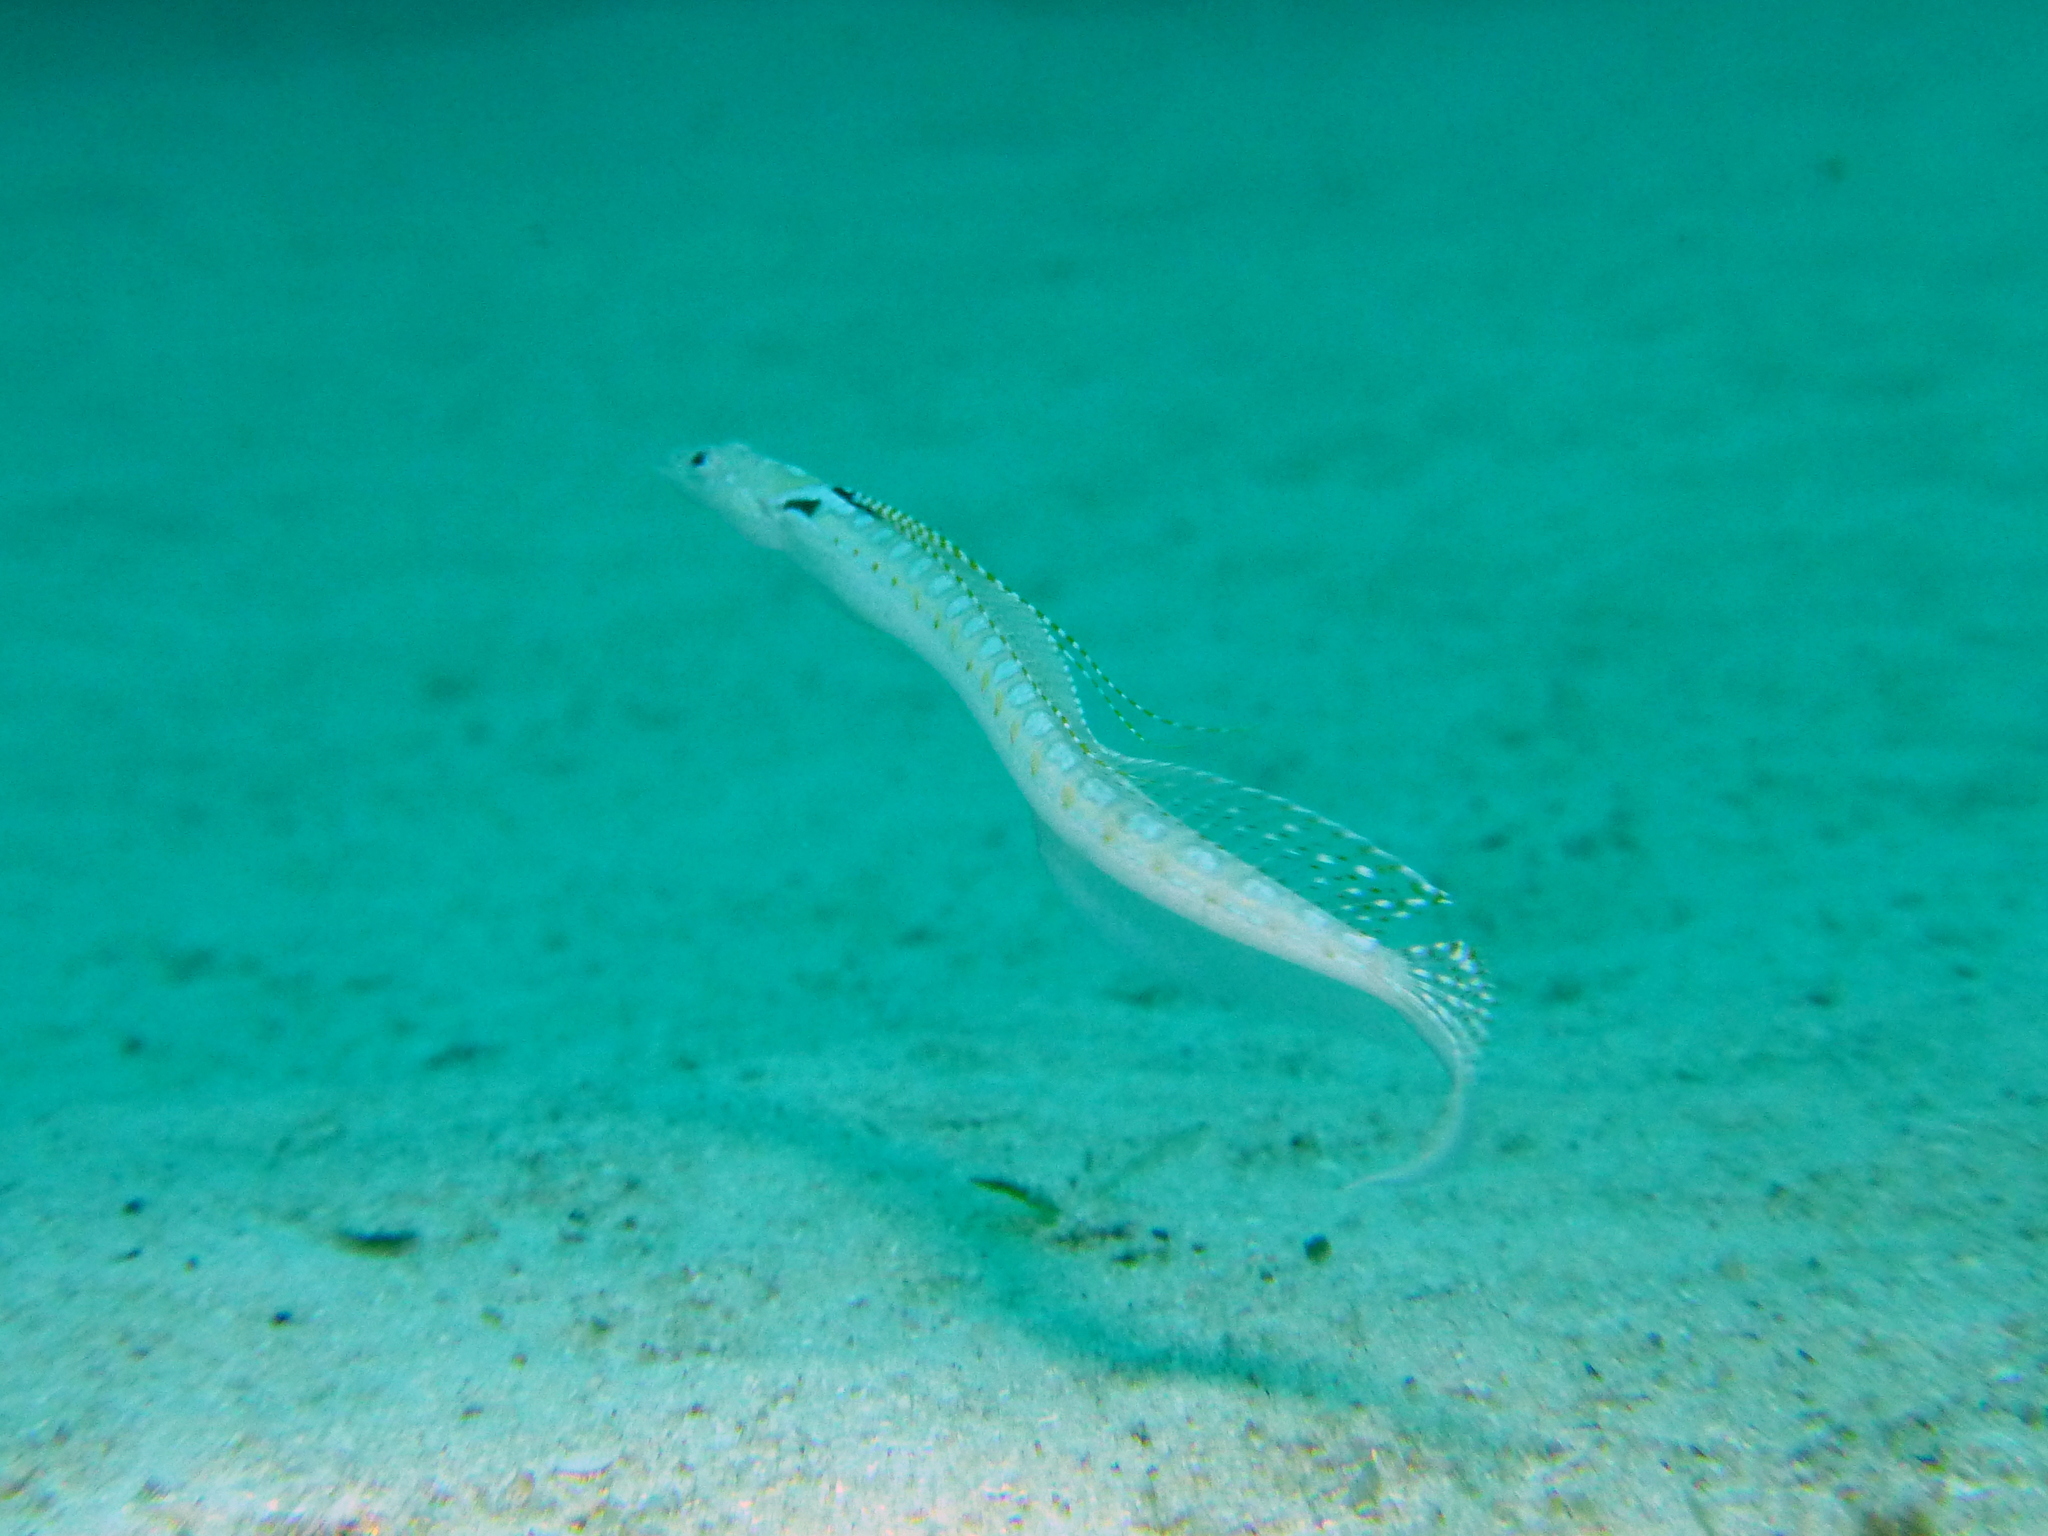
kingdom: Animalia
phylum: Chordata
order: Perciformes
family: Trichonotidae
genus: Trichonotus
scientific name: Trichonotus elegans
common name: Elegant sand-diver
